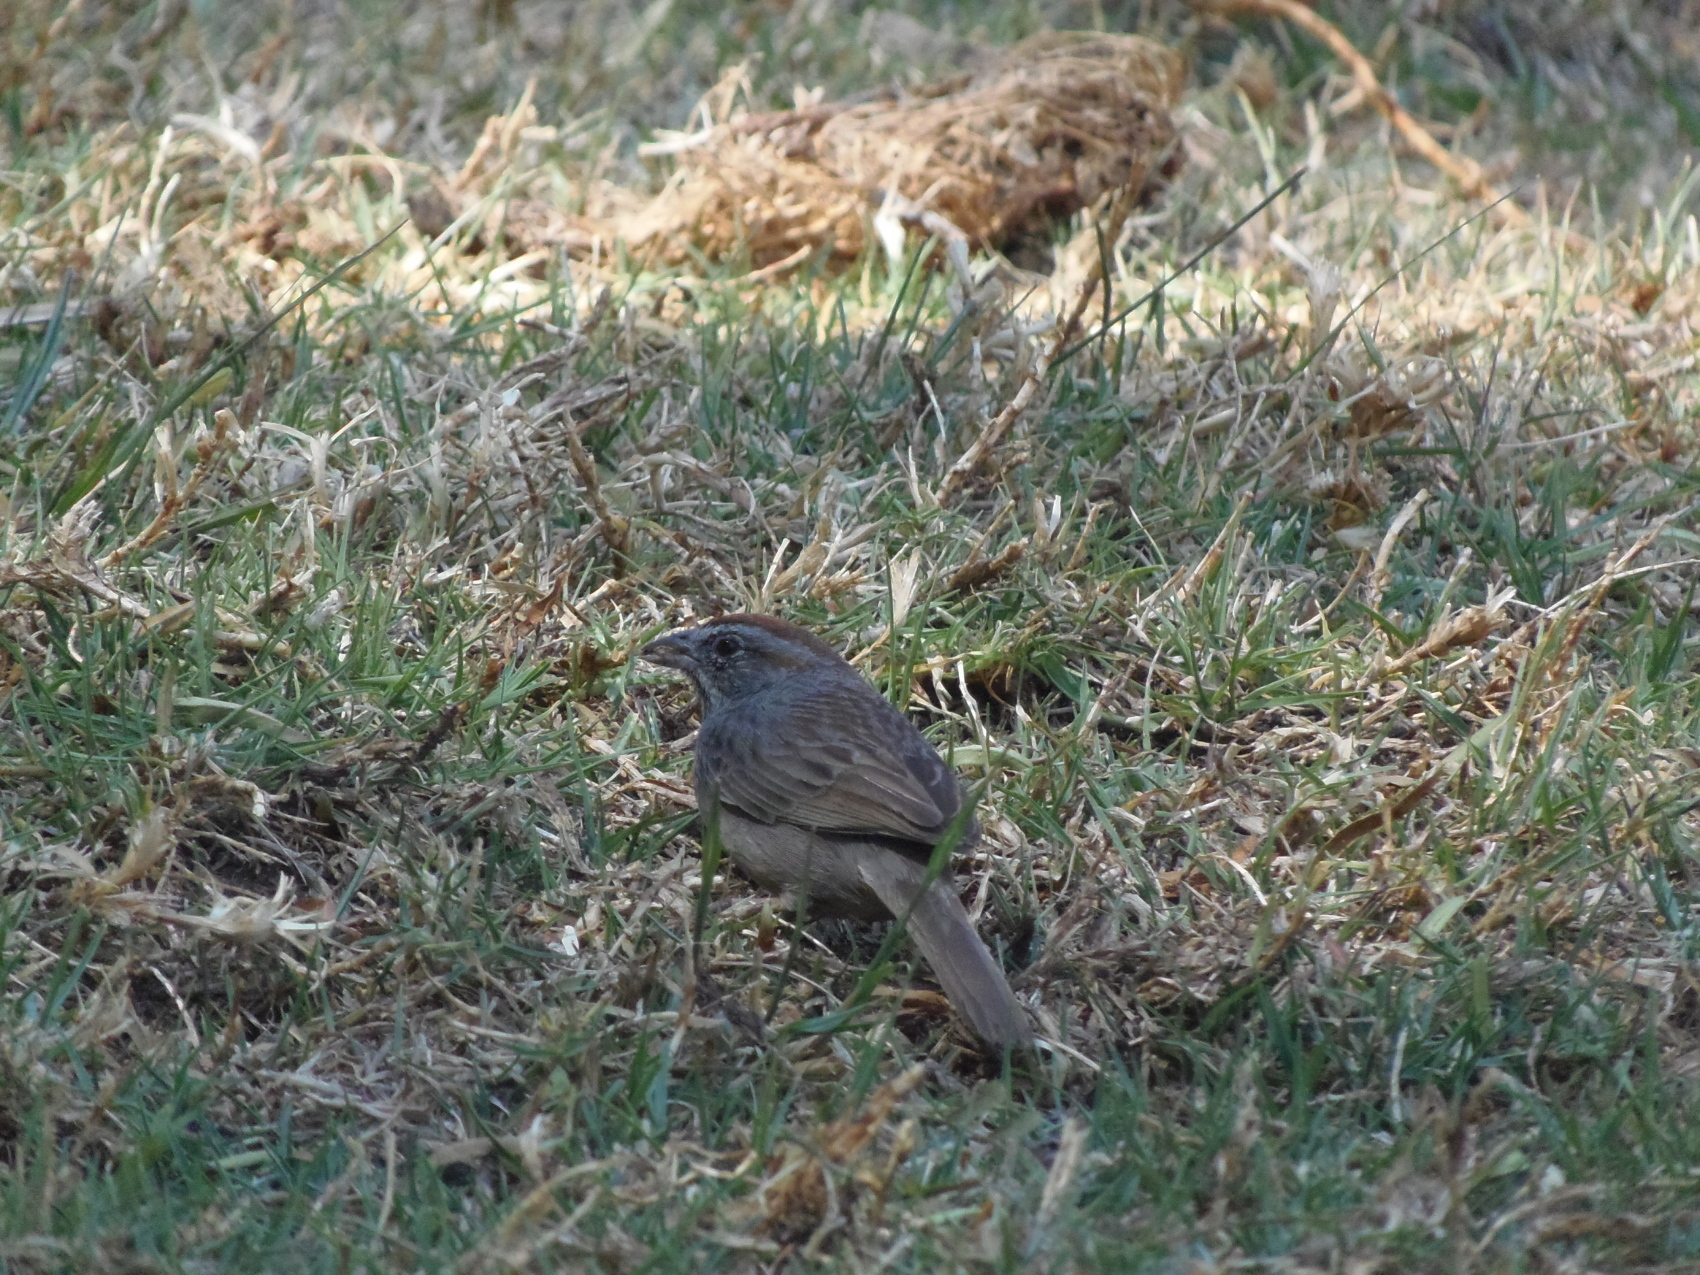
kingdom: Animalia
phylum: Chordata
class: Aves
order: Passeriformes
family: Passerellidae
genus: Aimophila
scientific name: Aimophila ruficeps
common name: Rufous-crowned sparrow
